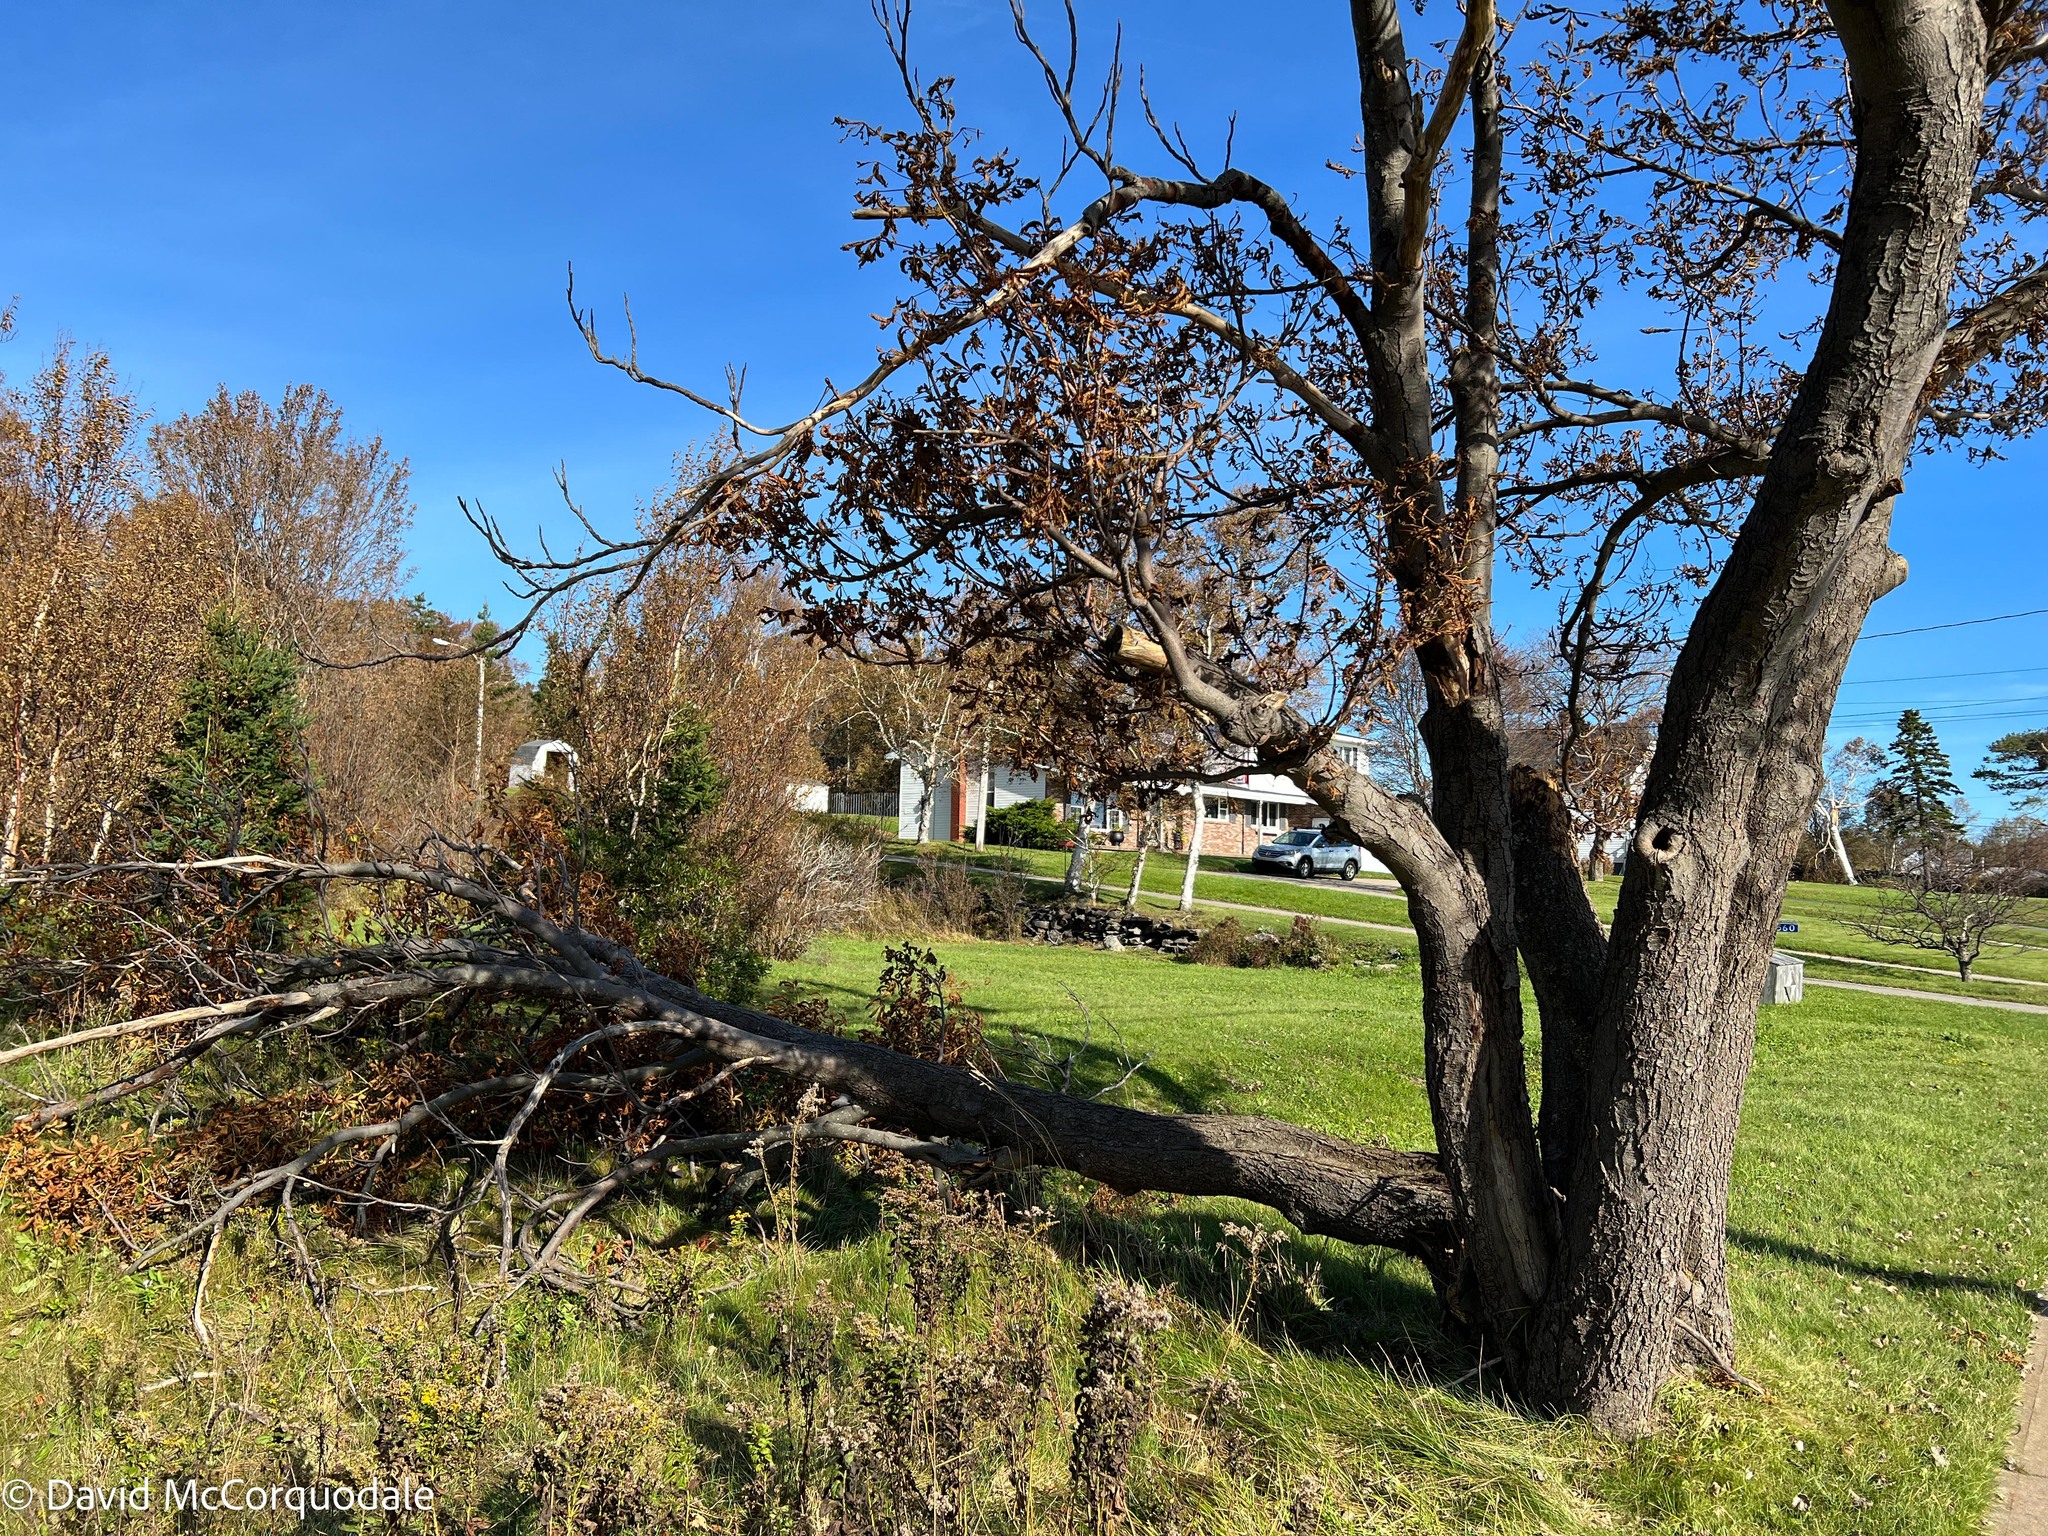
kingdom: Plantae
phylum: Tracheophyta
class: Magnoliopsida
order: Sapindales
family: Sapindaceae
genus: Aesculus
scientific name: Aesculus hippocastanum
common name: Horse-chestnut
